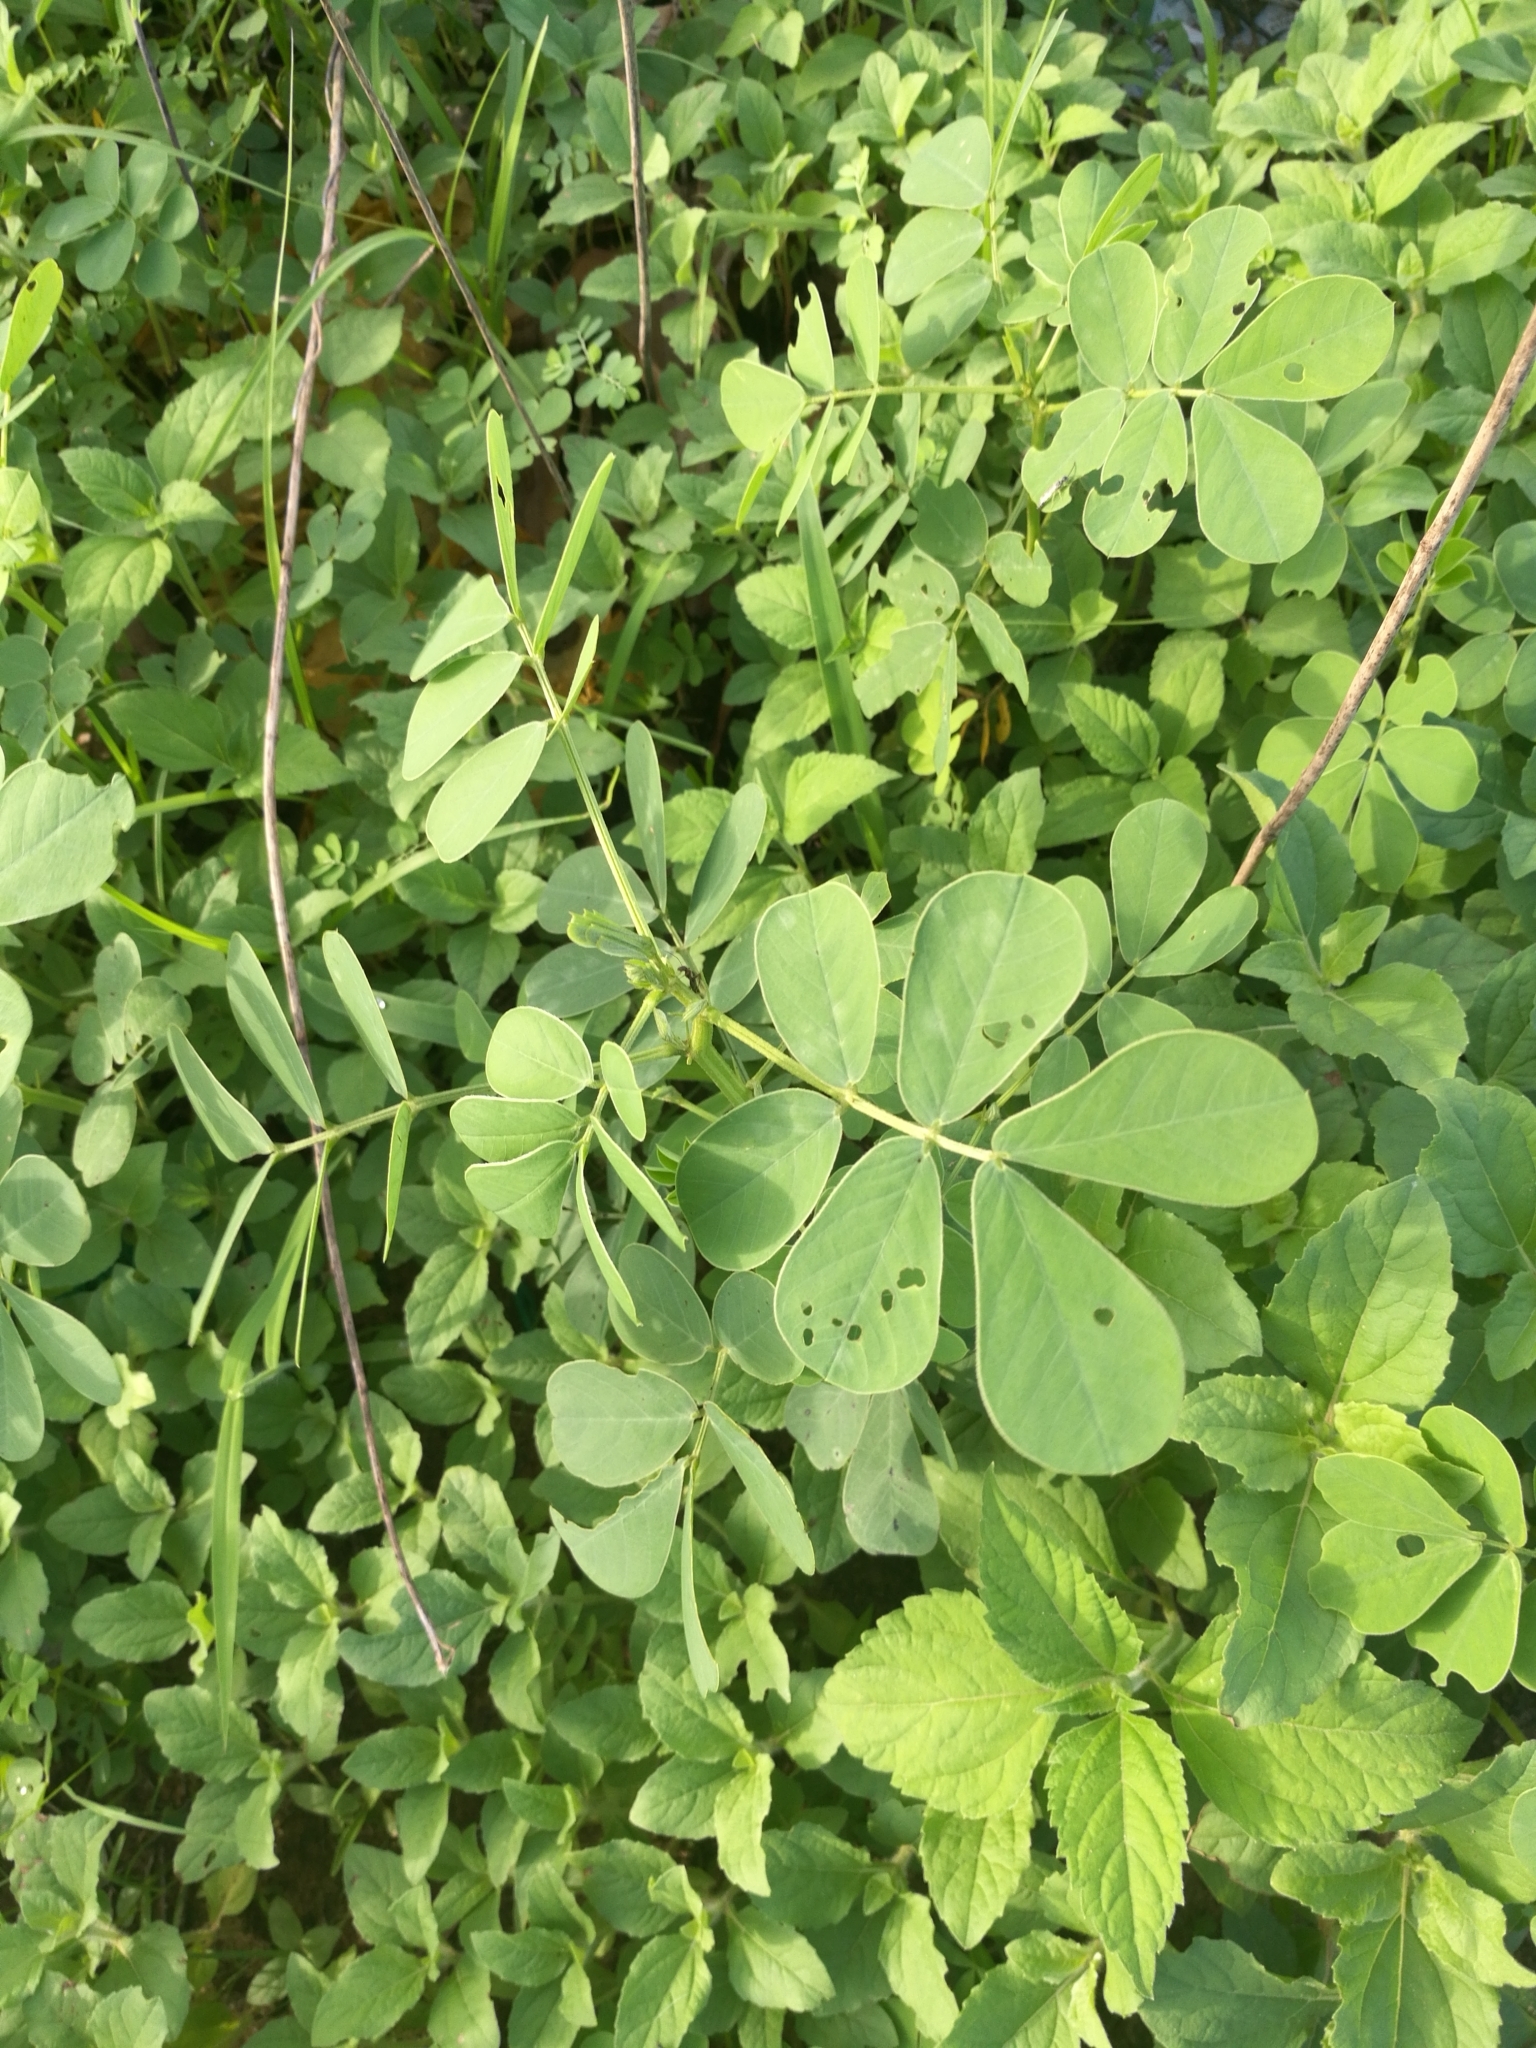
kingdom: Plantae
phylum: Tracheophyta
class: Magnoliopsida
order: Fabales
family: Fabaceae
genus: Senna
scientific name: Senna obtusifolia
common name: Java-bean
